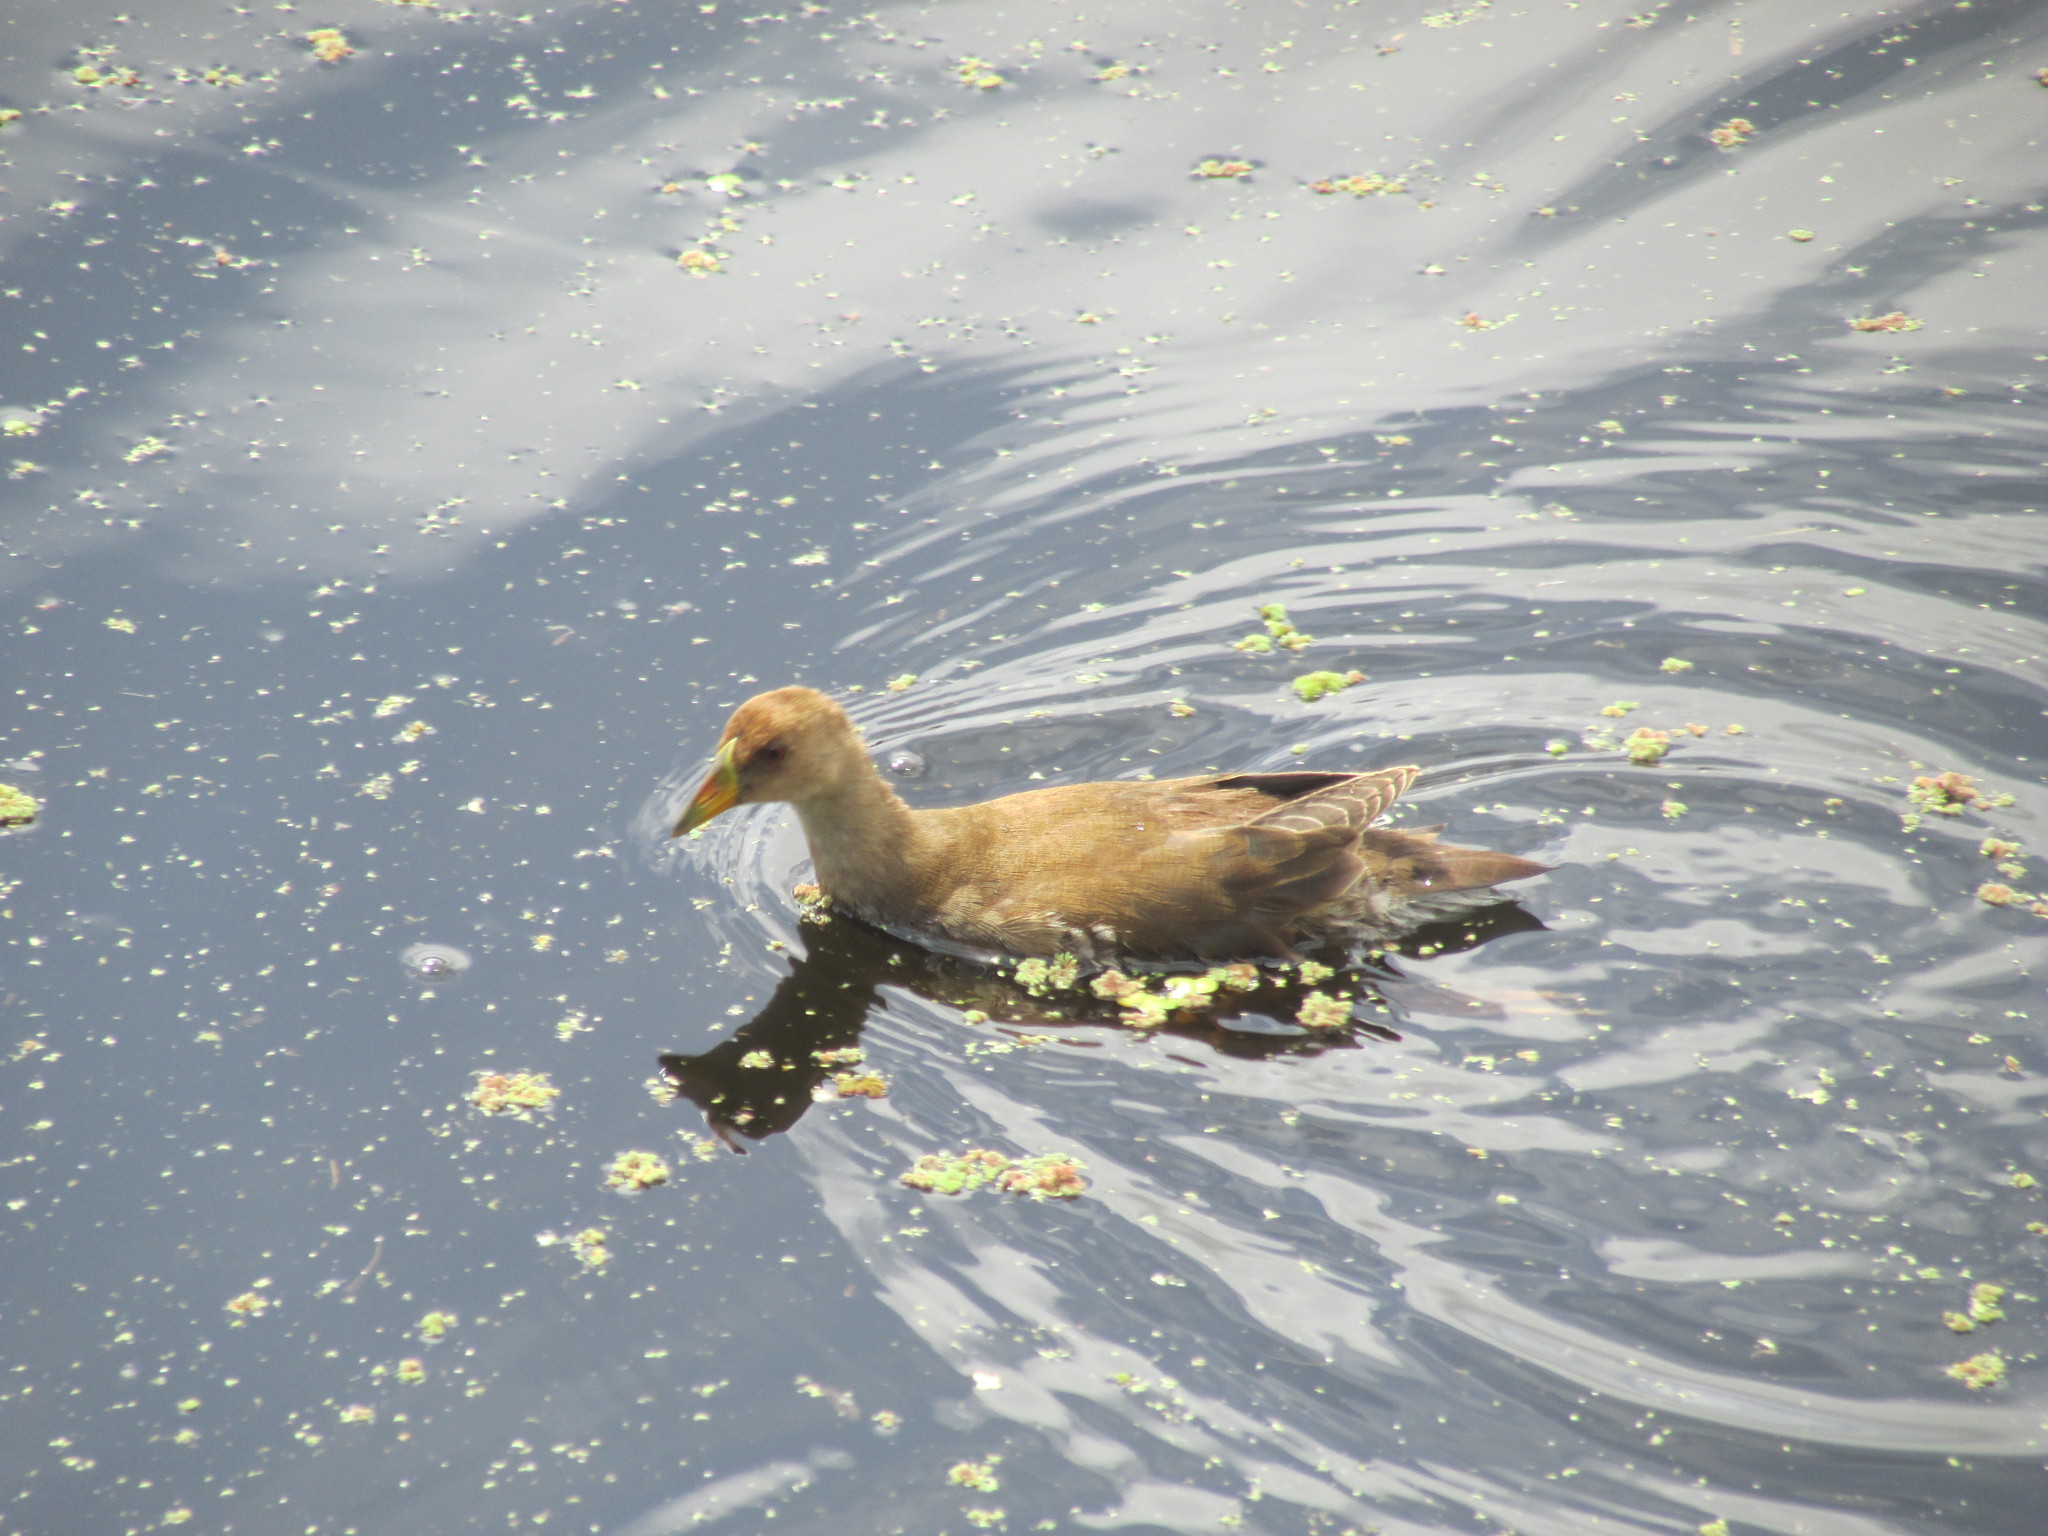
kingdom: Animalia
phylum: Chordata
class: Aves
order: Gruiformes
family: Rallidae
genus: Gallinula
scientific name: Gallinula melanops
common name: Spot-flanked gallinule
